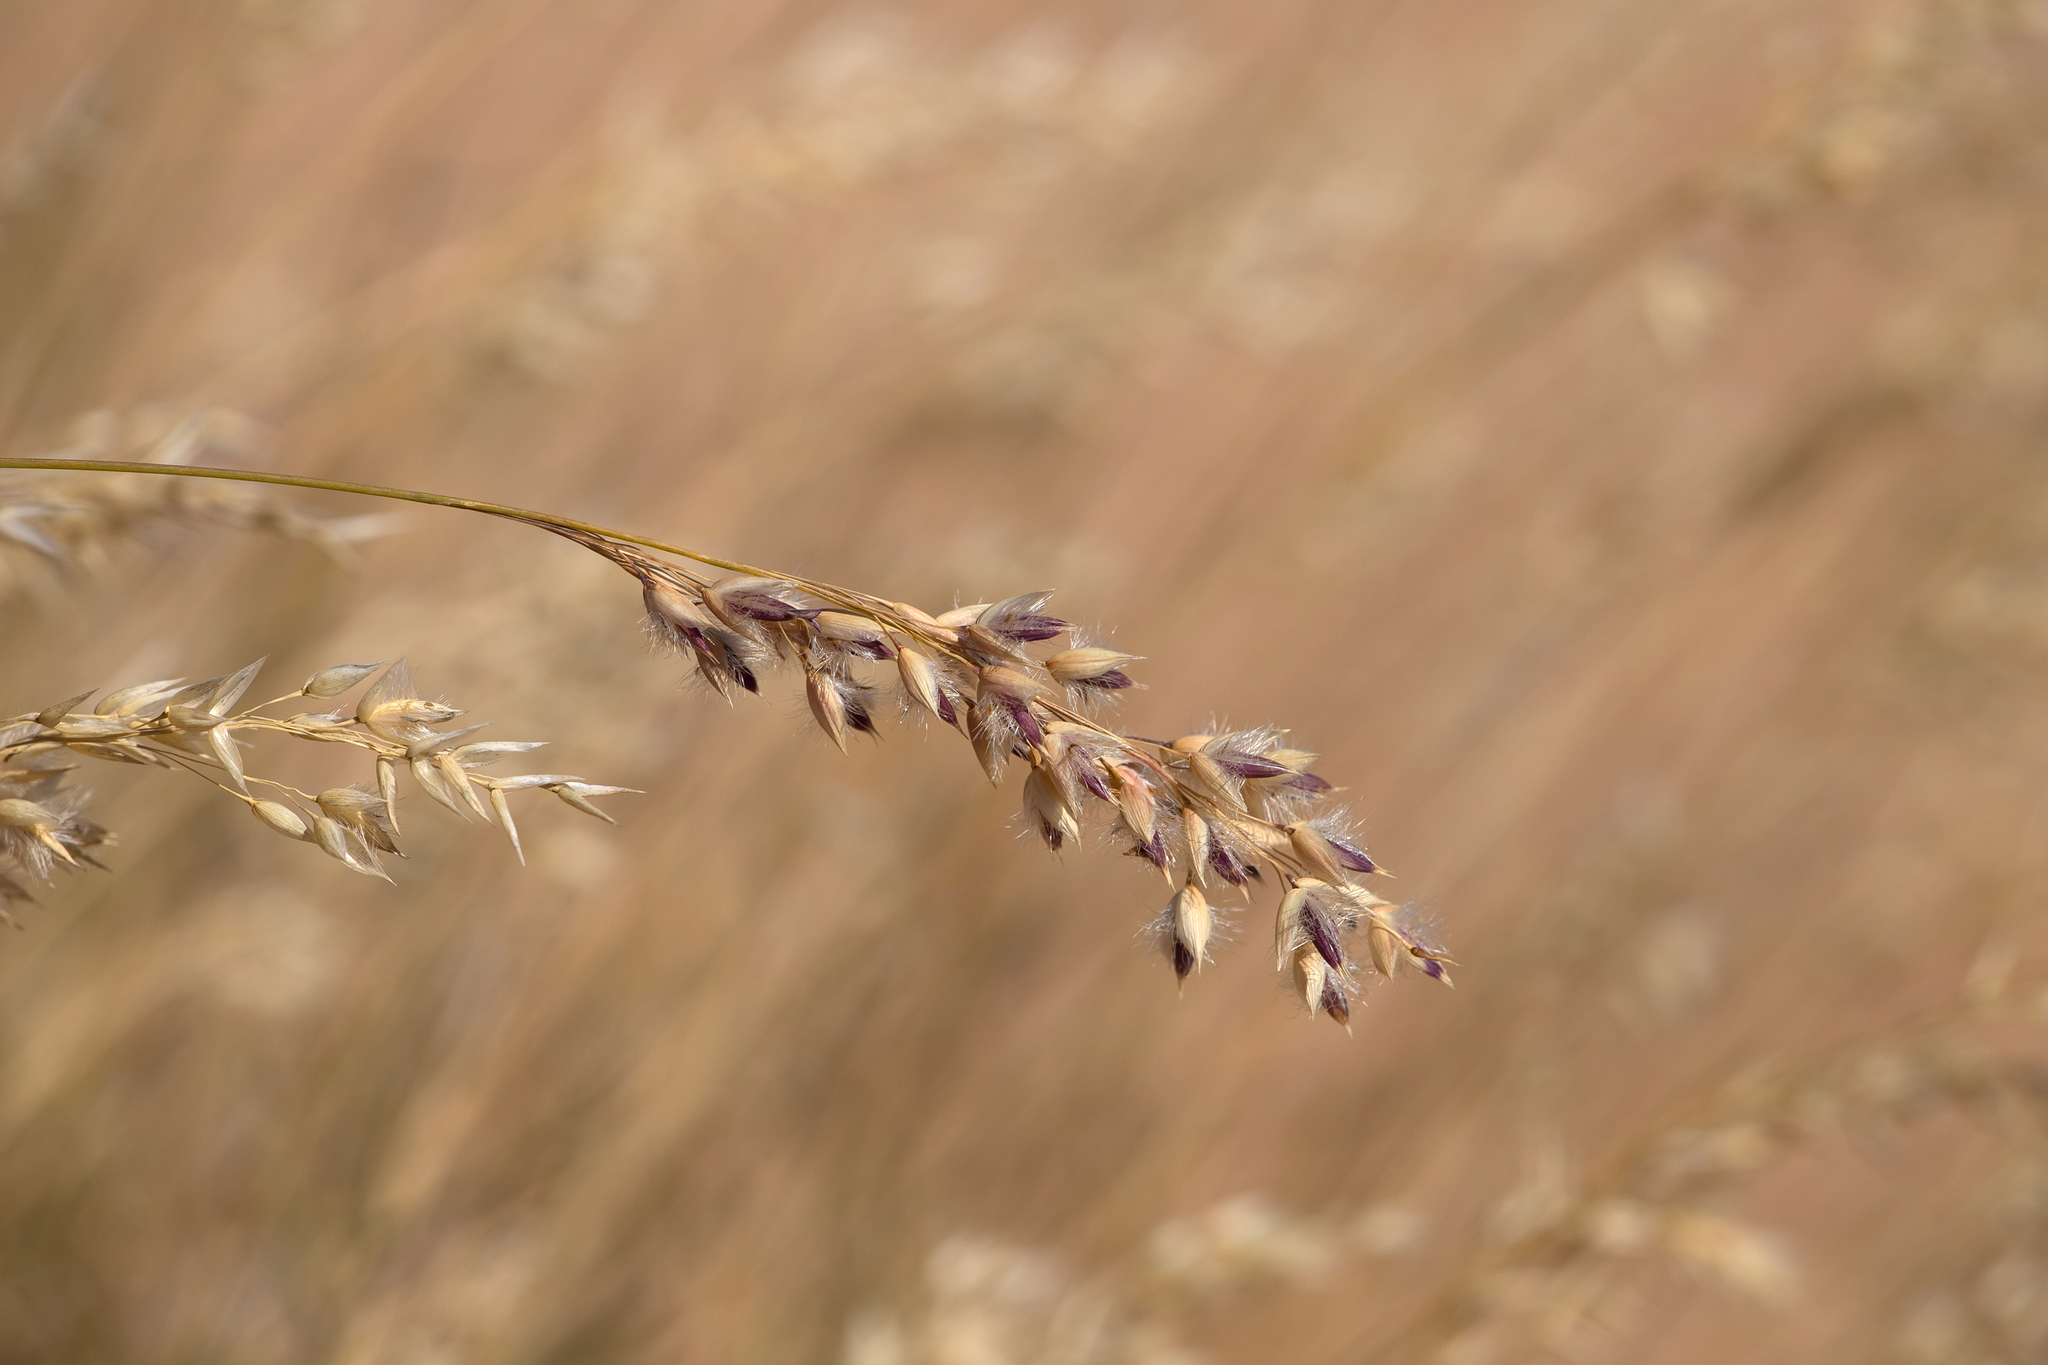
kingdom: Plantae
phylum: Tracheophyta
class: Liliopsida
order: Poales
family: Poaceae
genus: Eriachne
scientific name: Eriachne mucronata
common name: Mountain wanderrie grass
